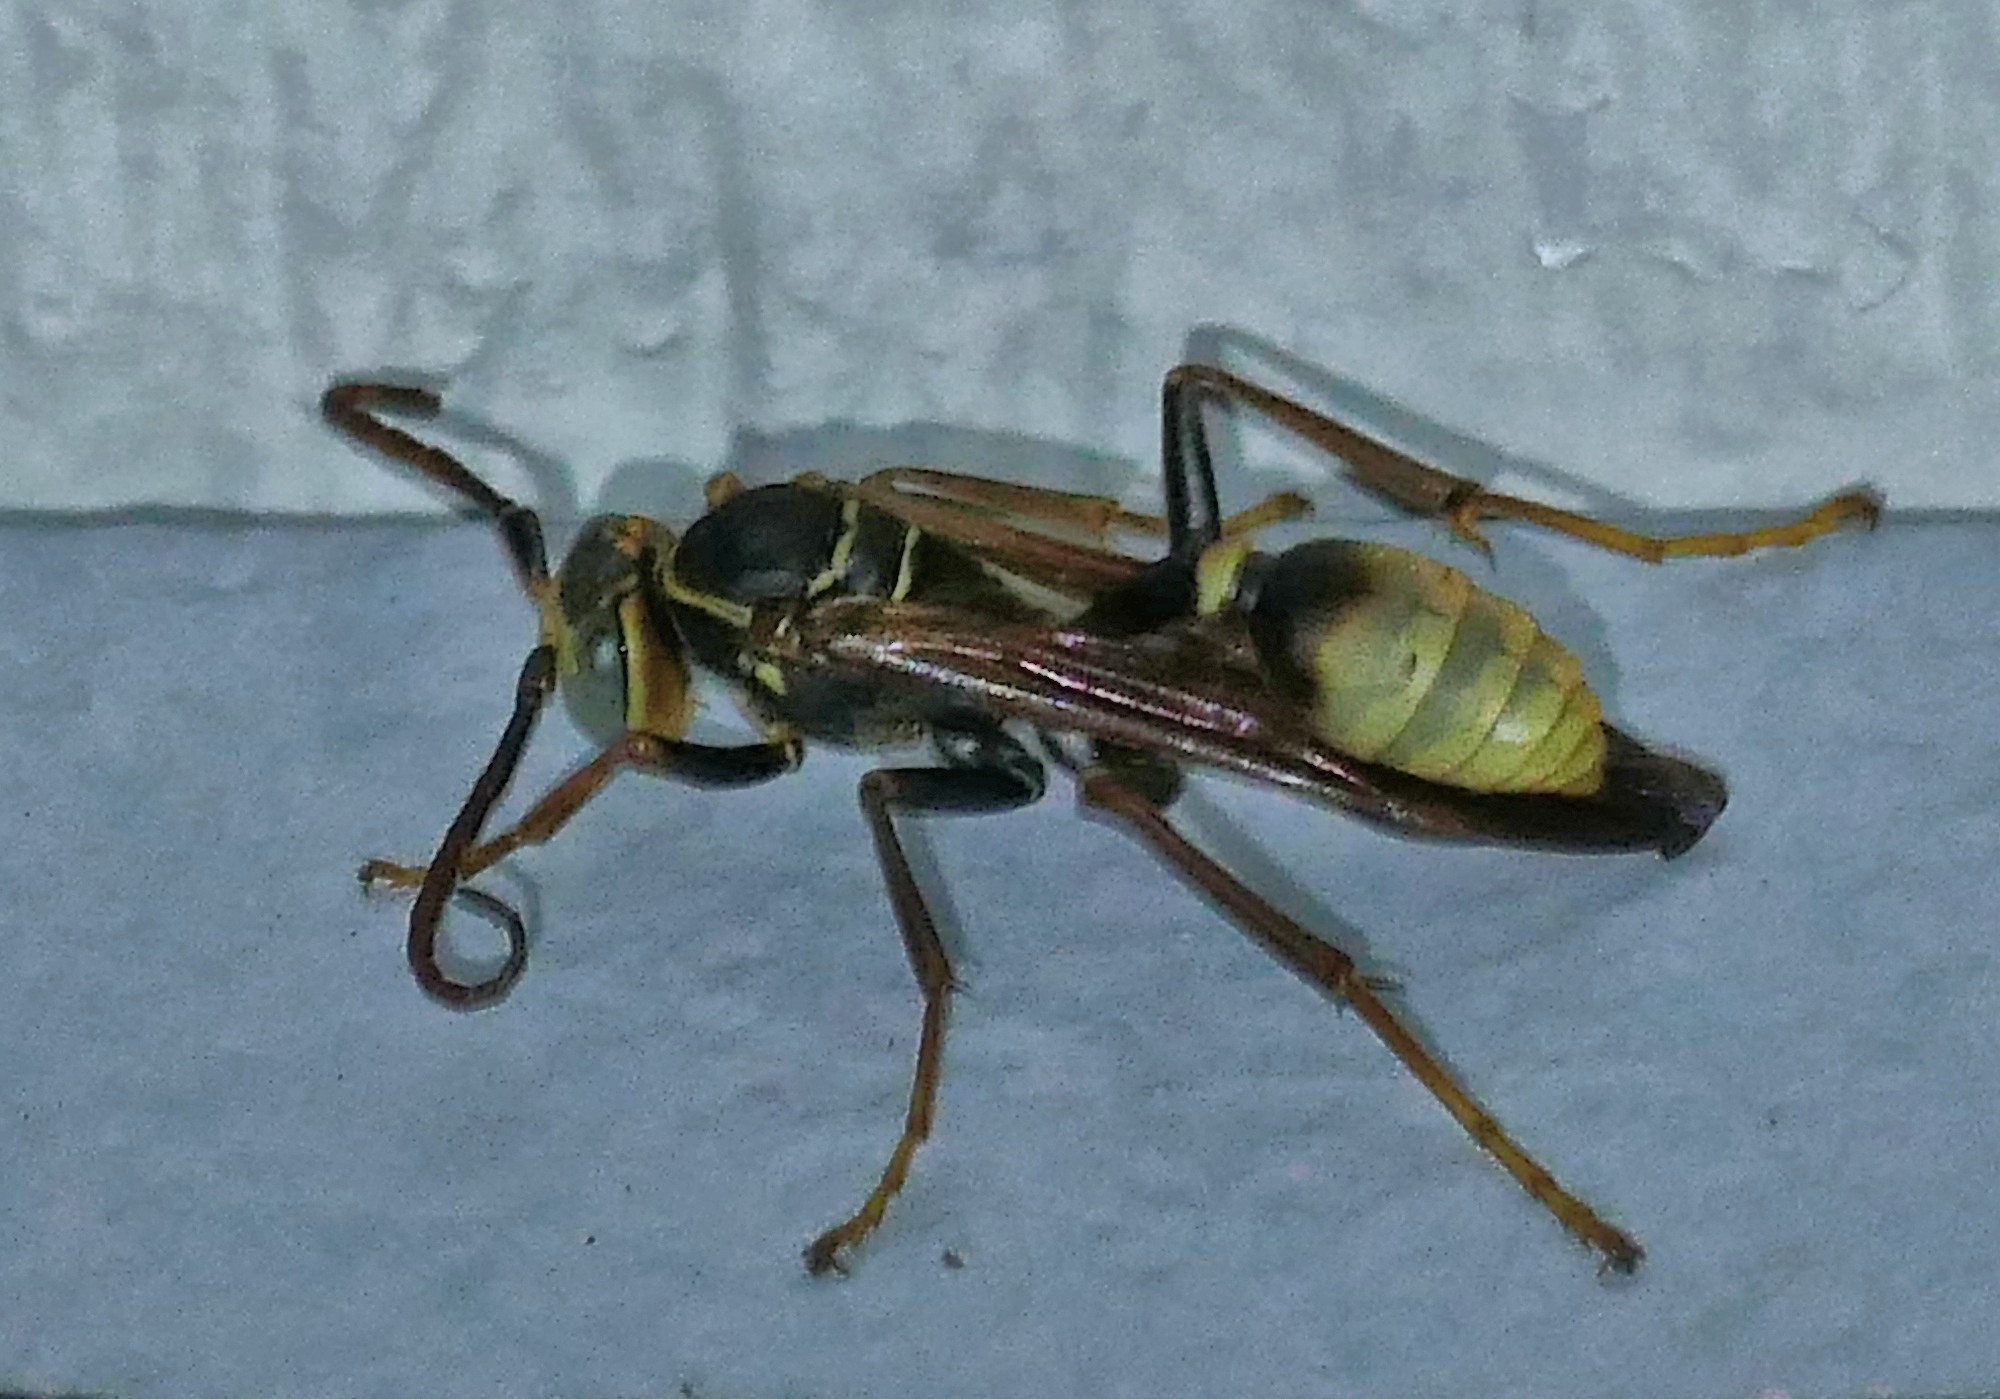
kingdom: Animalia
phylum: Arthropoda
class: Insecta
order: Hymenoptera
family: Vespidae
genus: Mischocyttarus
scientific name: Mischocyttarus flavitarsis
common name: Wasp
